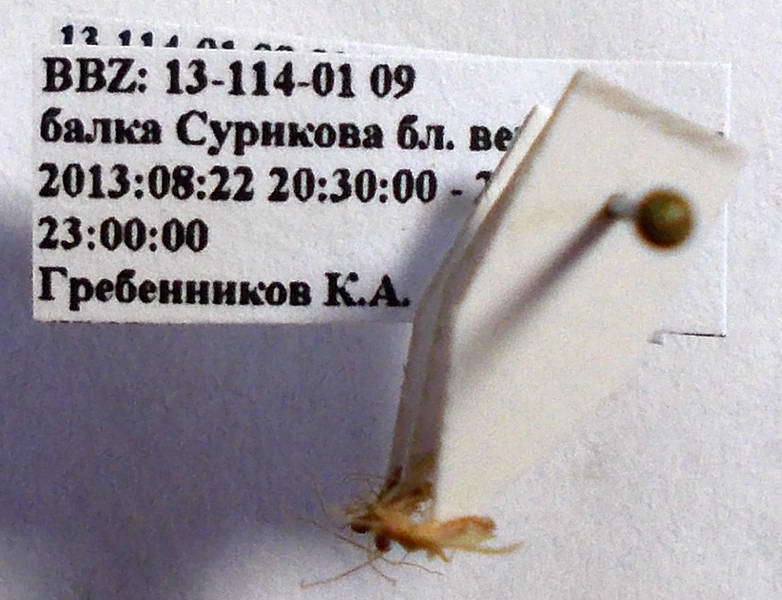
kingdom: Animalia
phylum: Arthropoda
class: Insecta
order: Hemiptera
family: Miridae
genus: Hallodapus
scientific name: Hallodapus concolor
